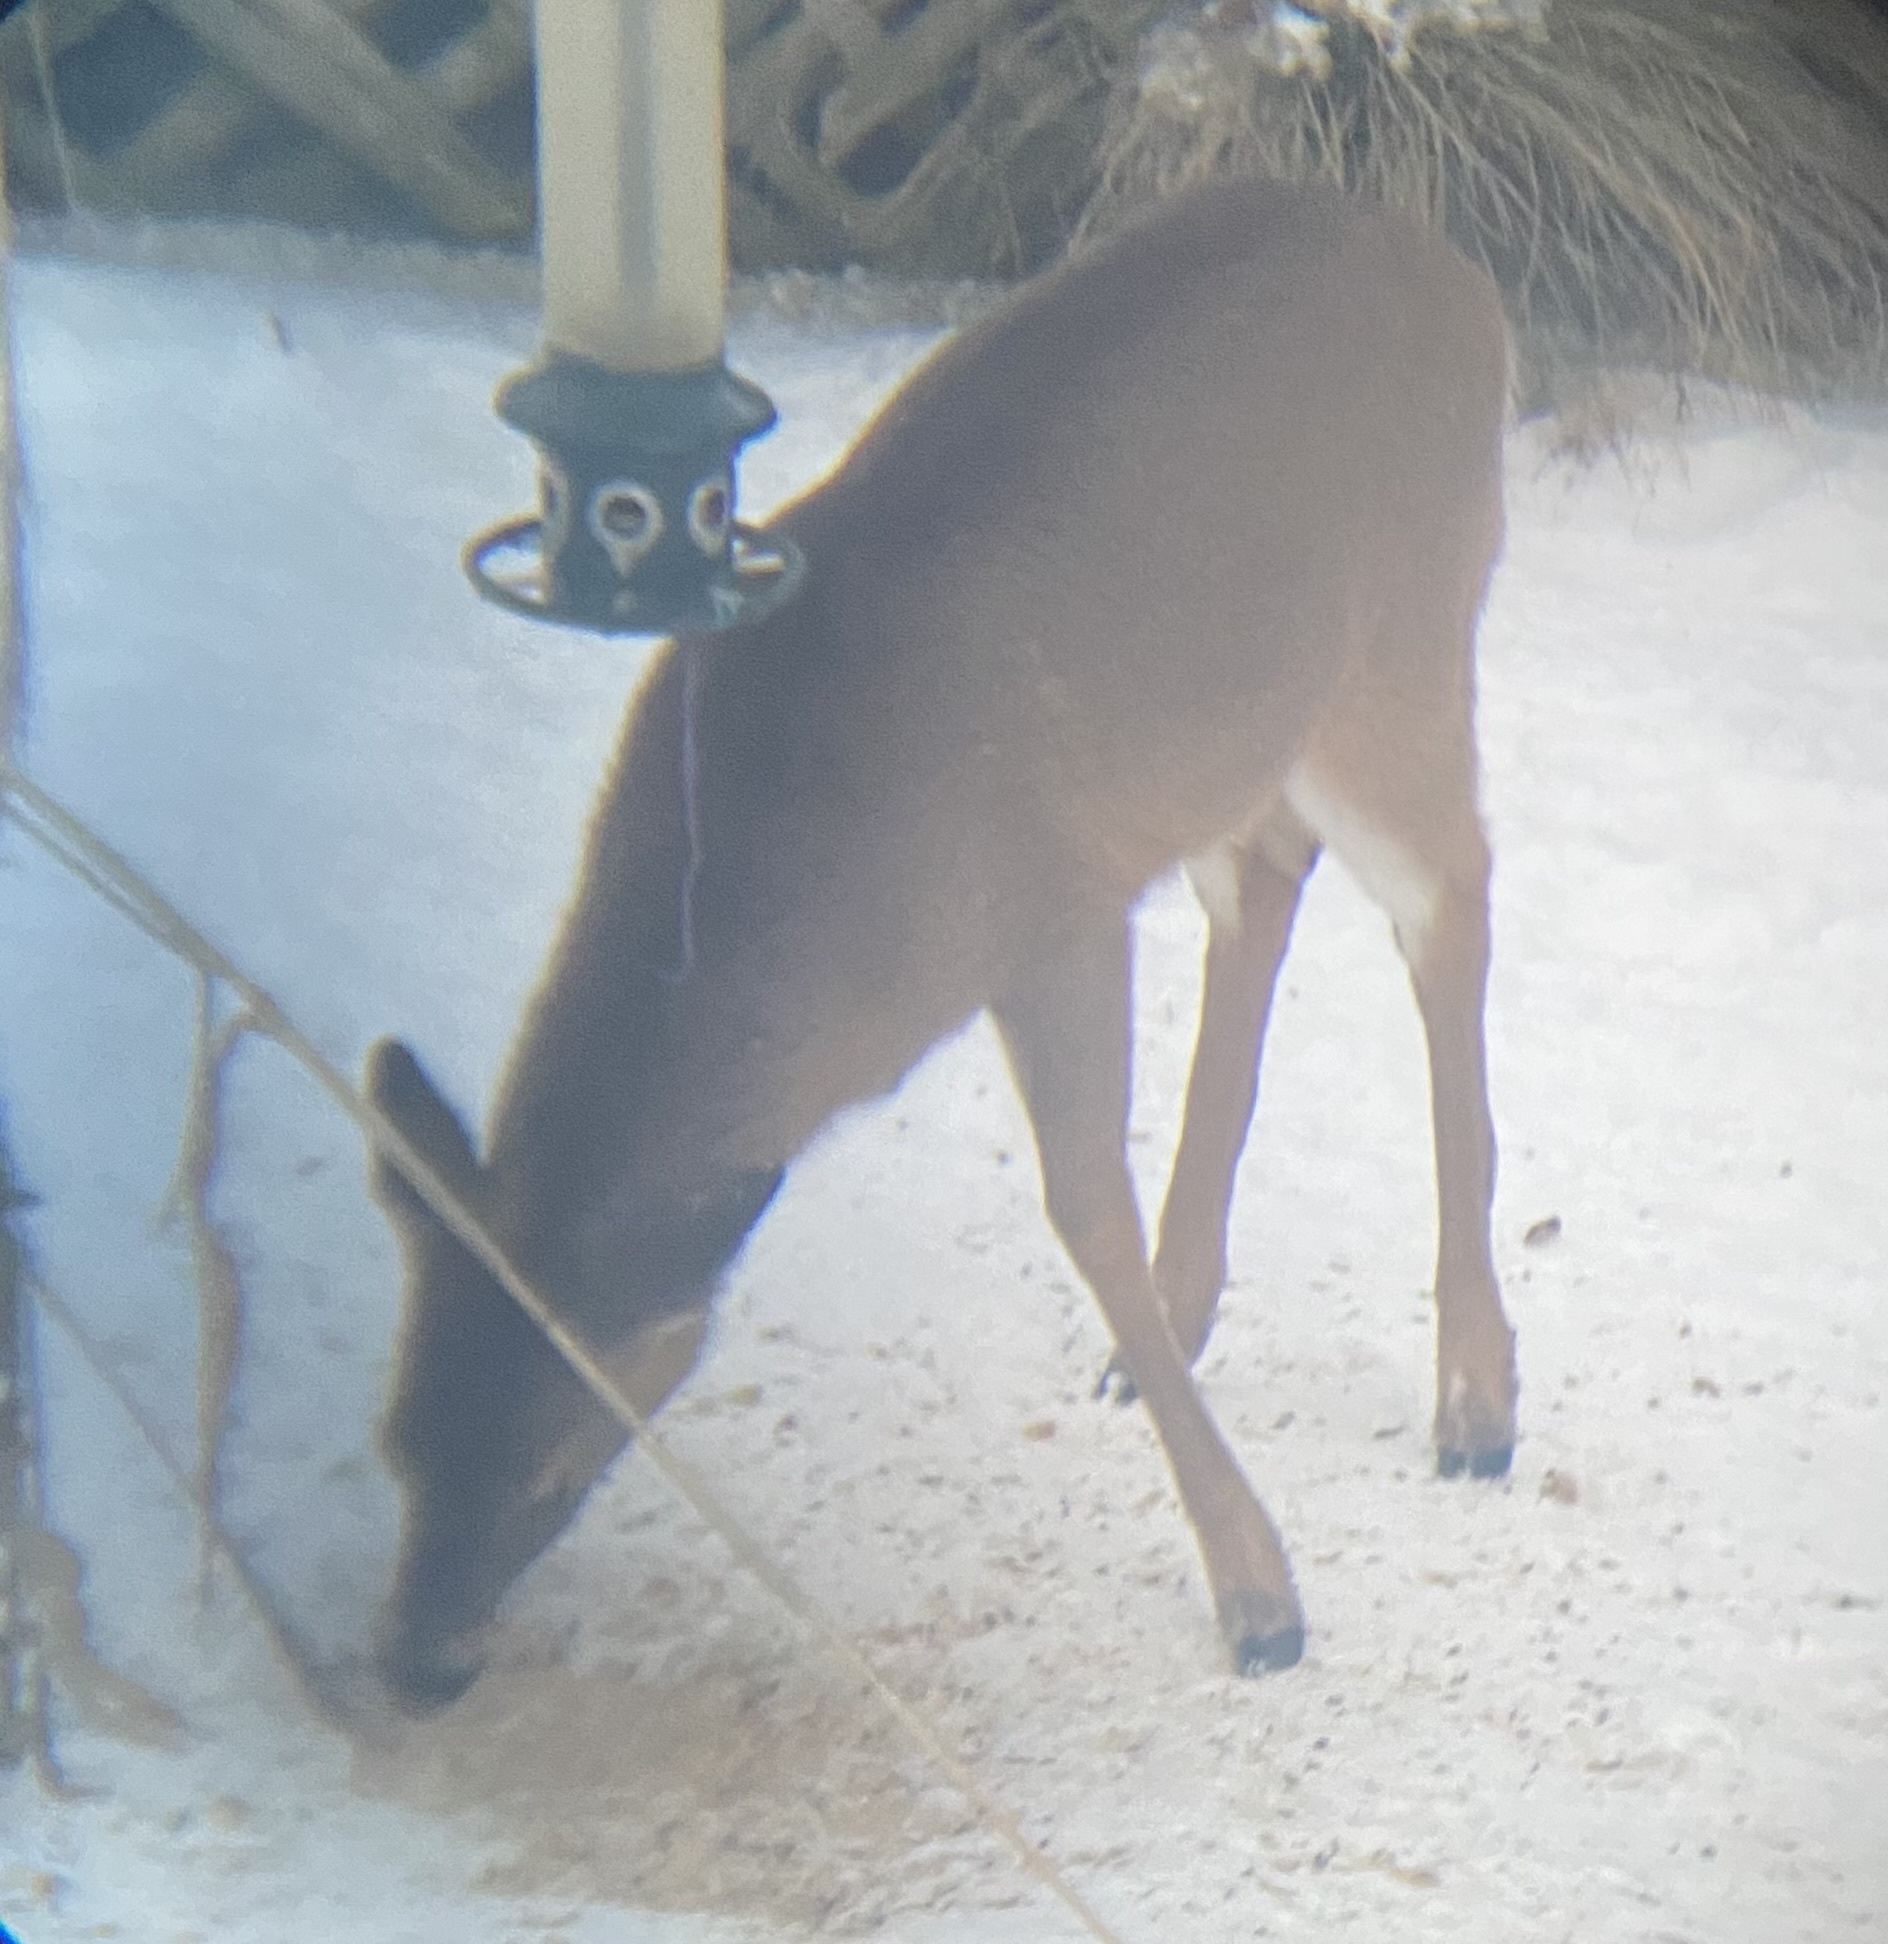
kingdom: Animalia
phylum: Chordata
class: Mammalia
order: Artiodactyla
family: Cervidae
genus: Odocoileus
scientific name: Odocoileus virginianus
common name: White-tailed deer
